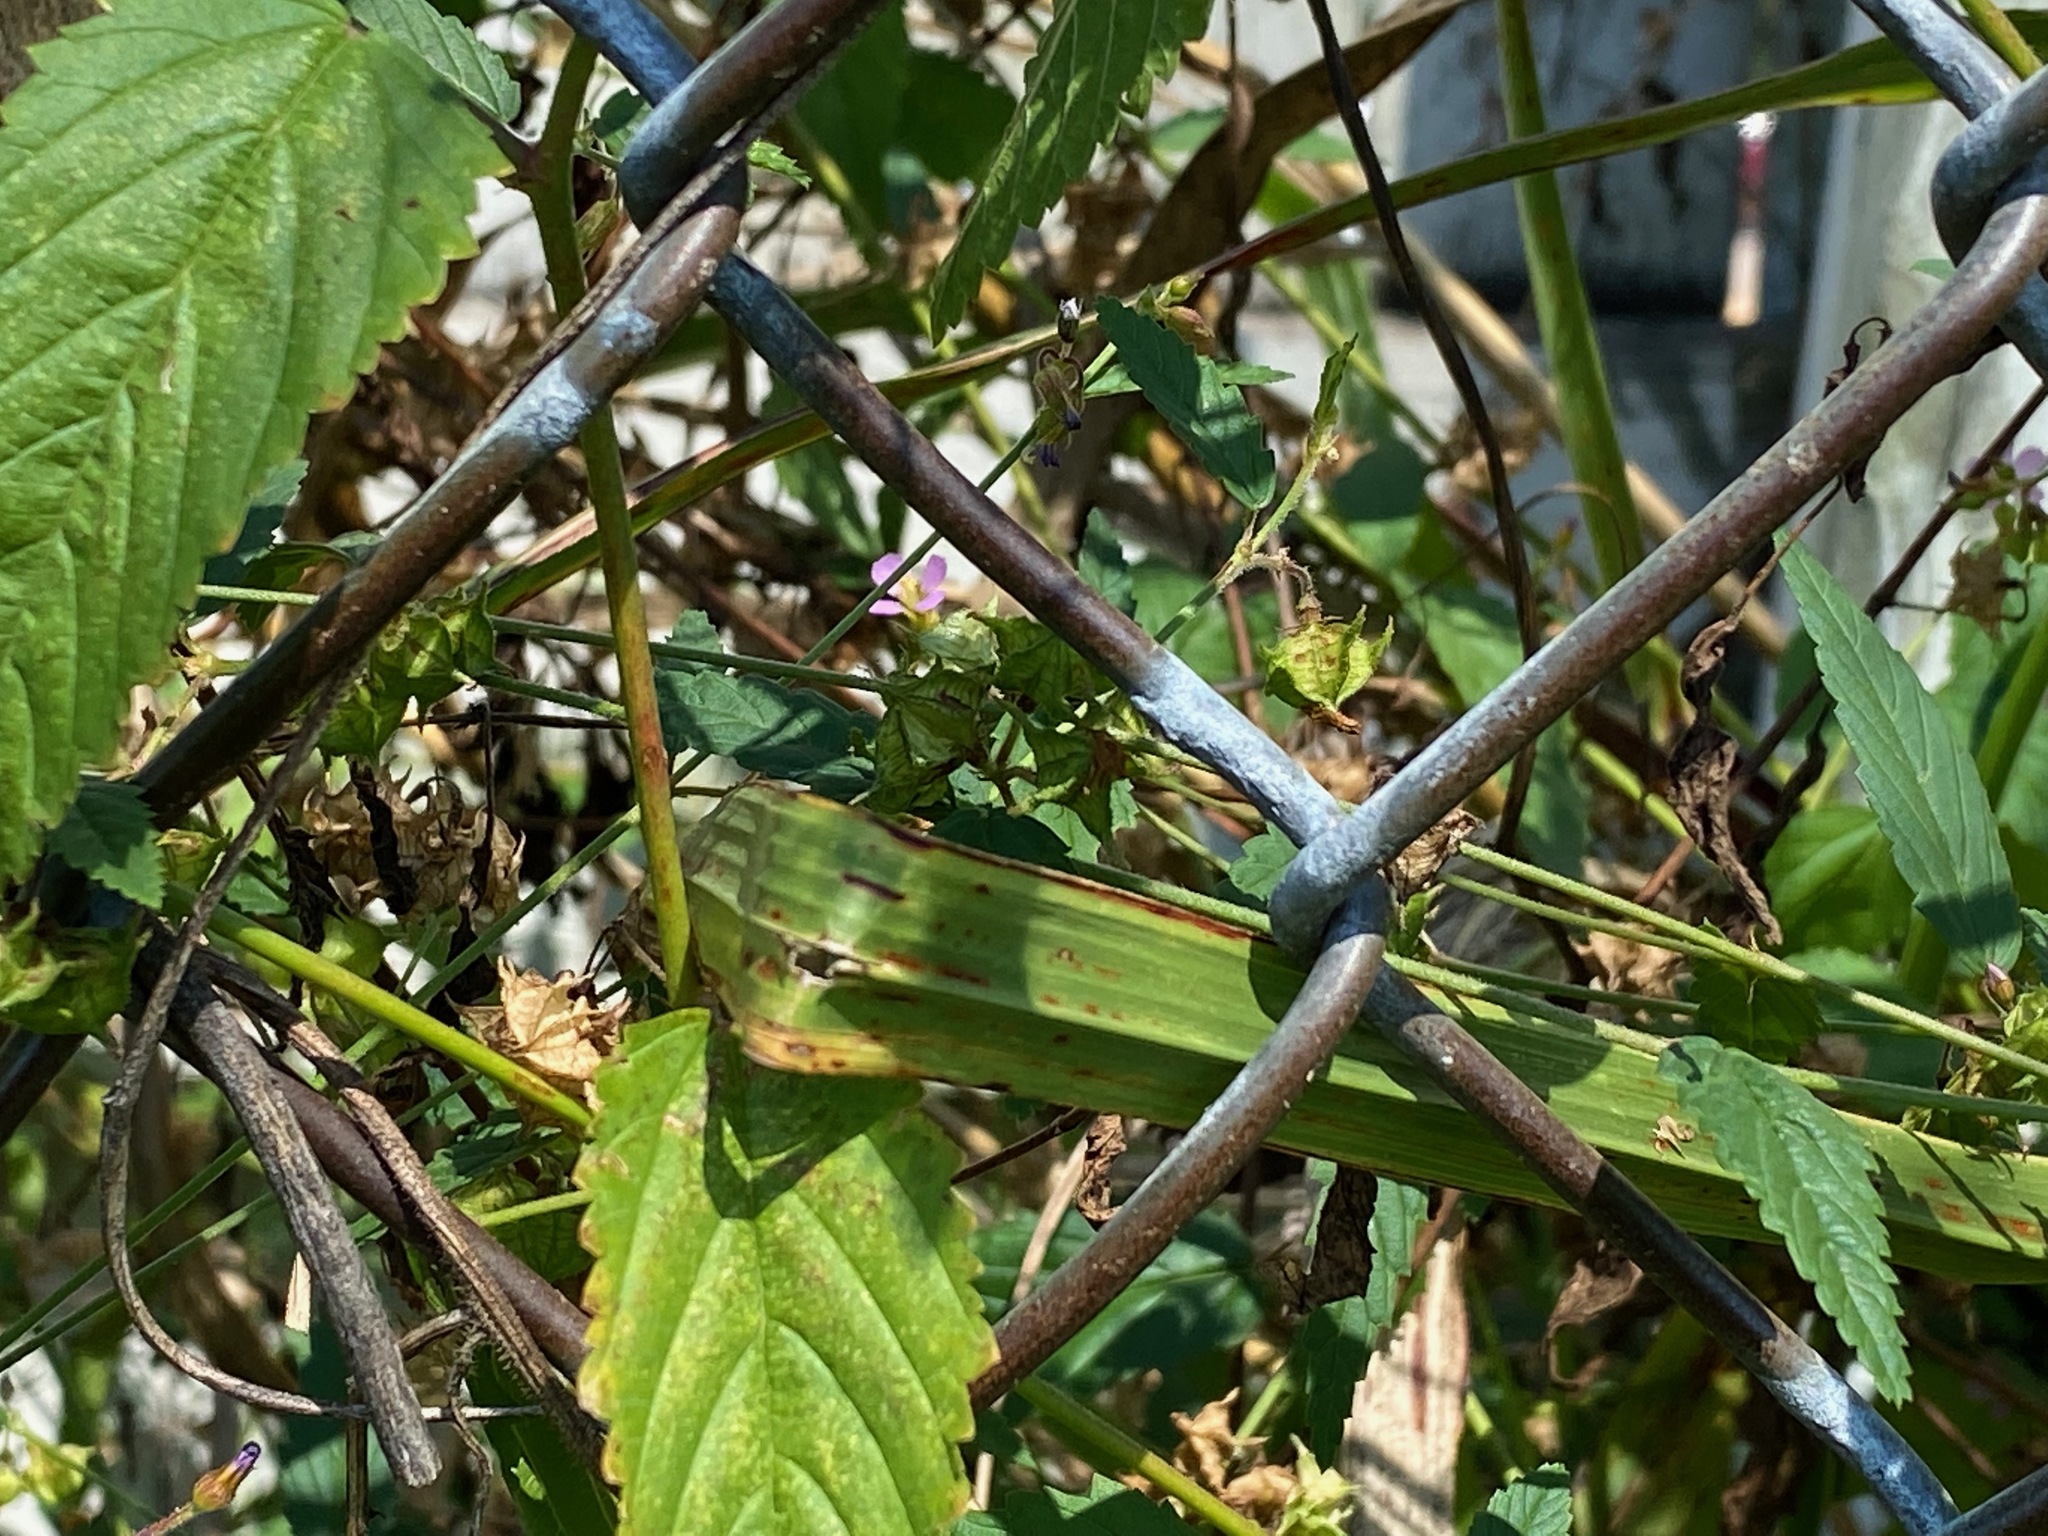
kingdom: Plantae
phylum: Tracheophyta
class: Magnoliopsida
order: Malvales
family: Malvaceae
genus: Melochia
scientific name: Melochia pyramidata
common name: Pyramidflower
